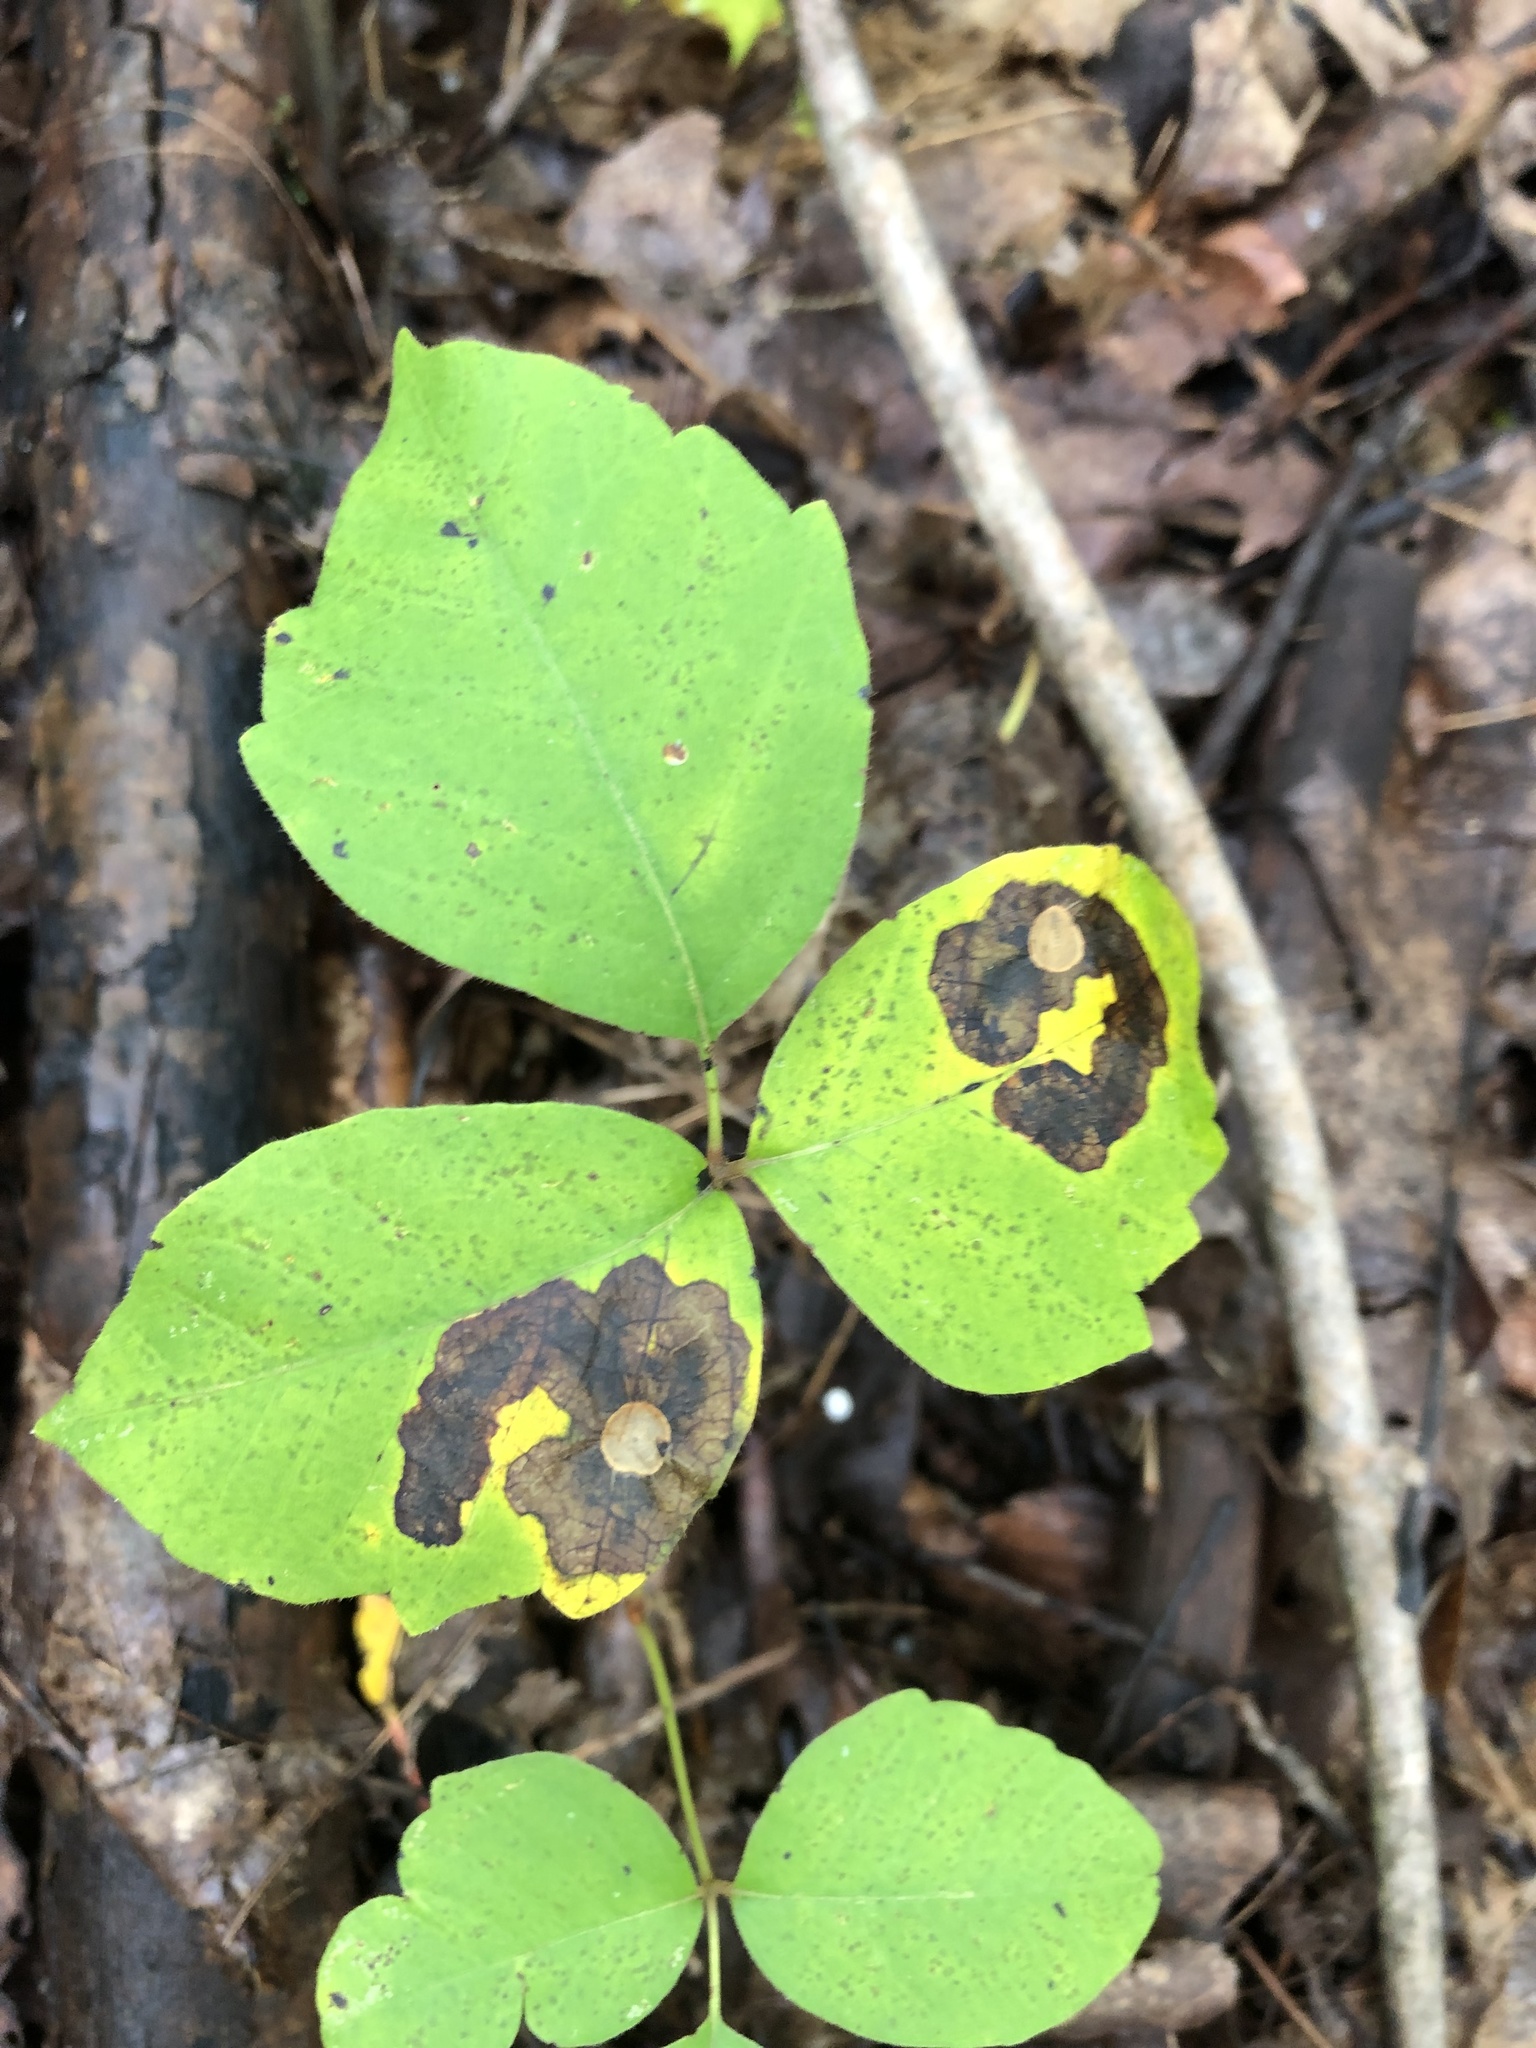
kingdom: Animalia
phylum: Arthropoda
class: Insecta
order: Lepidoptera
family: Gracillariidae
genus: Cameraria
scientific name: Cameraria guttifinitella
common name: Poison ivy leaf-miner moth
